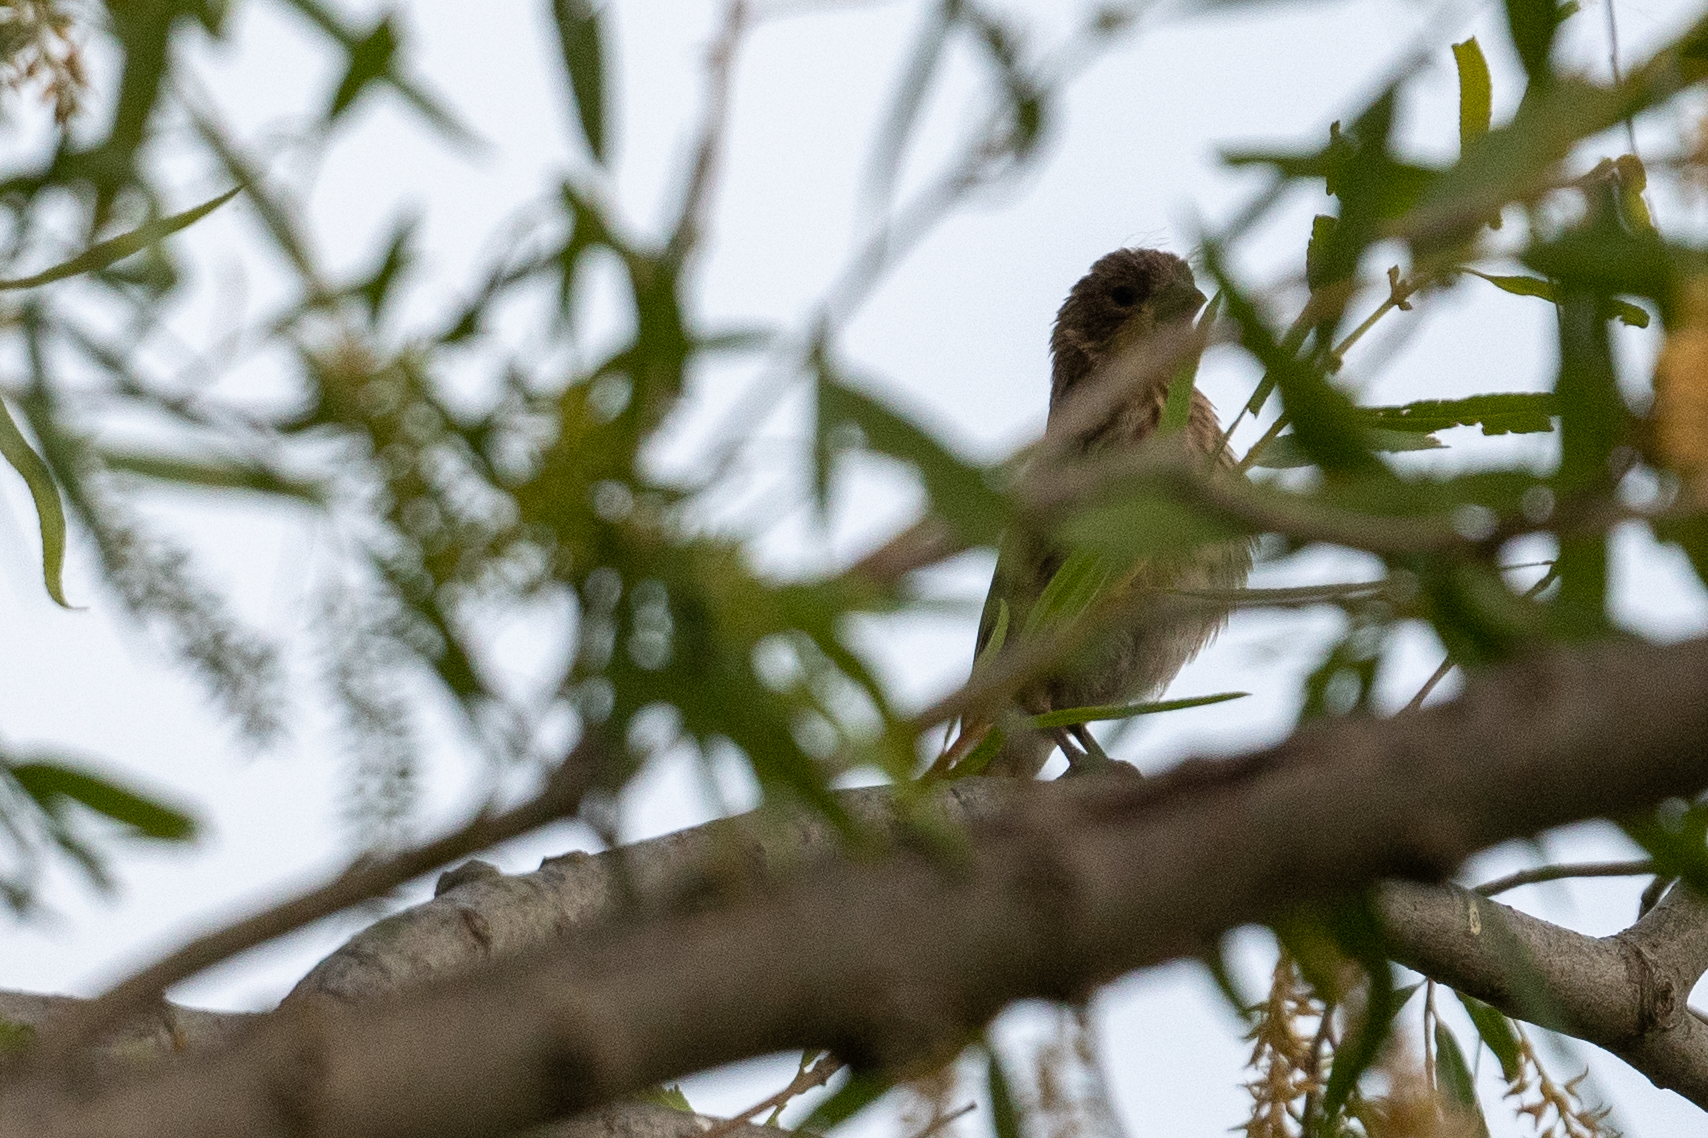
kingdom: Animalia
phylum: Chordata
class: Aves
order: Passeriformes
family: Fringillidae
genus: Haemorhous
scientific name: Haemorhous mexicanus
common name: House finch
